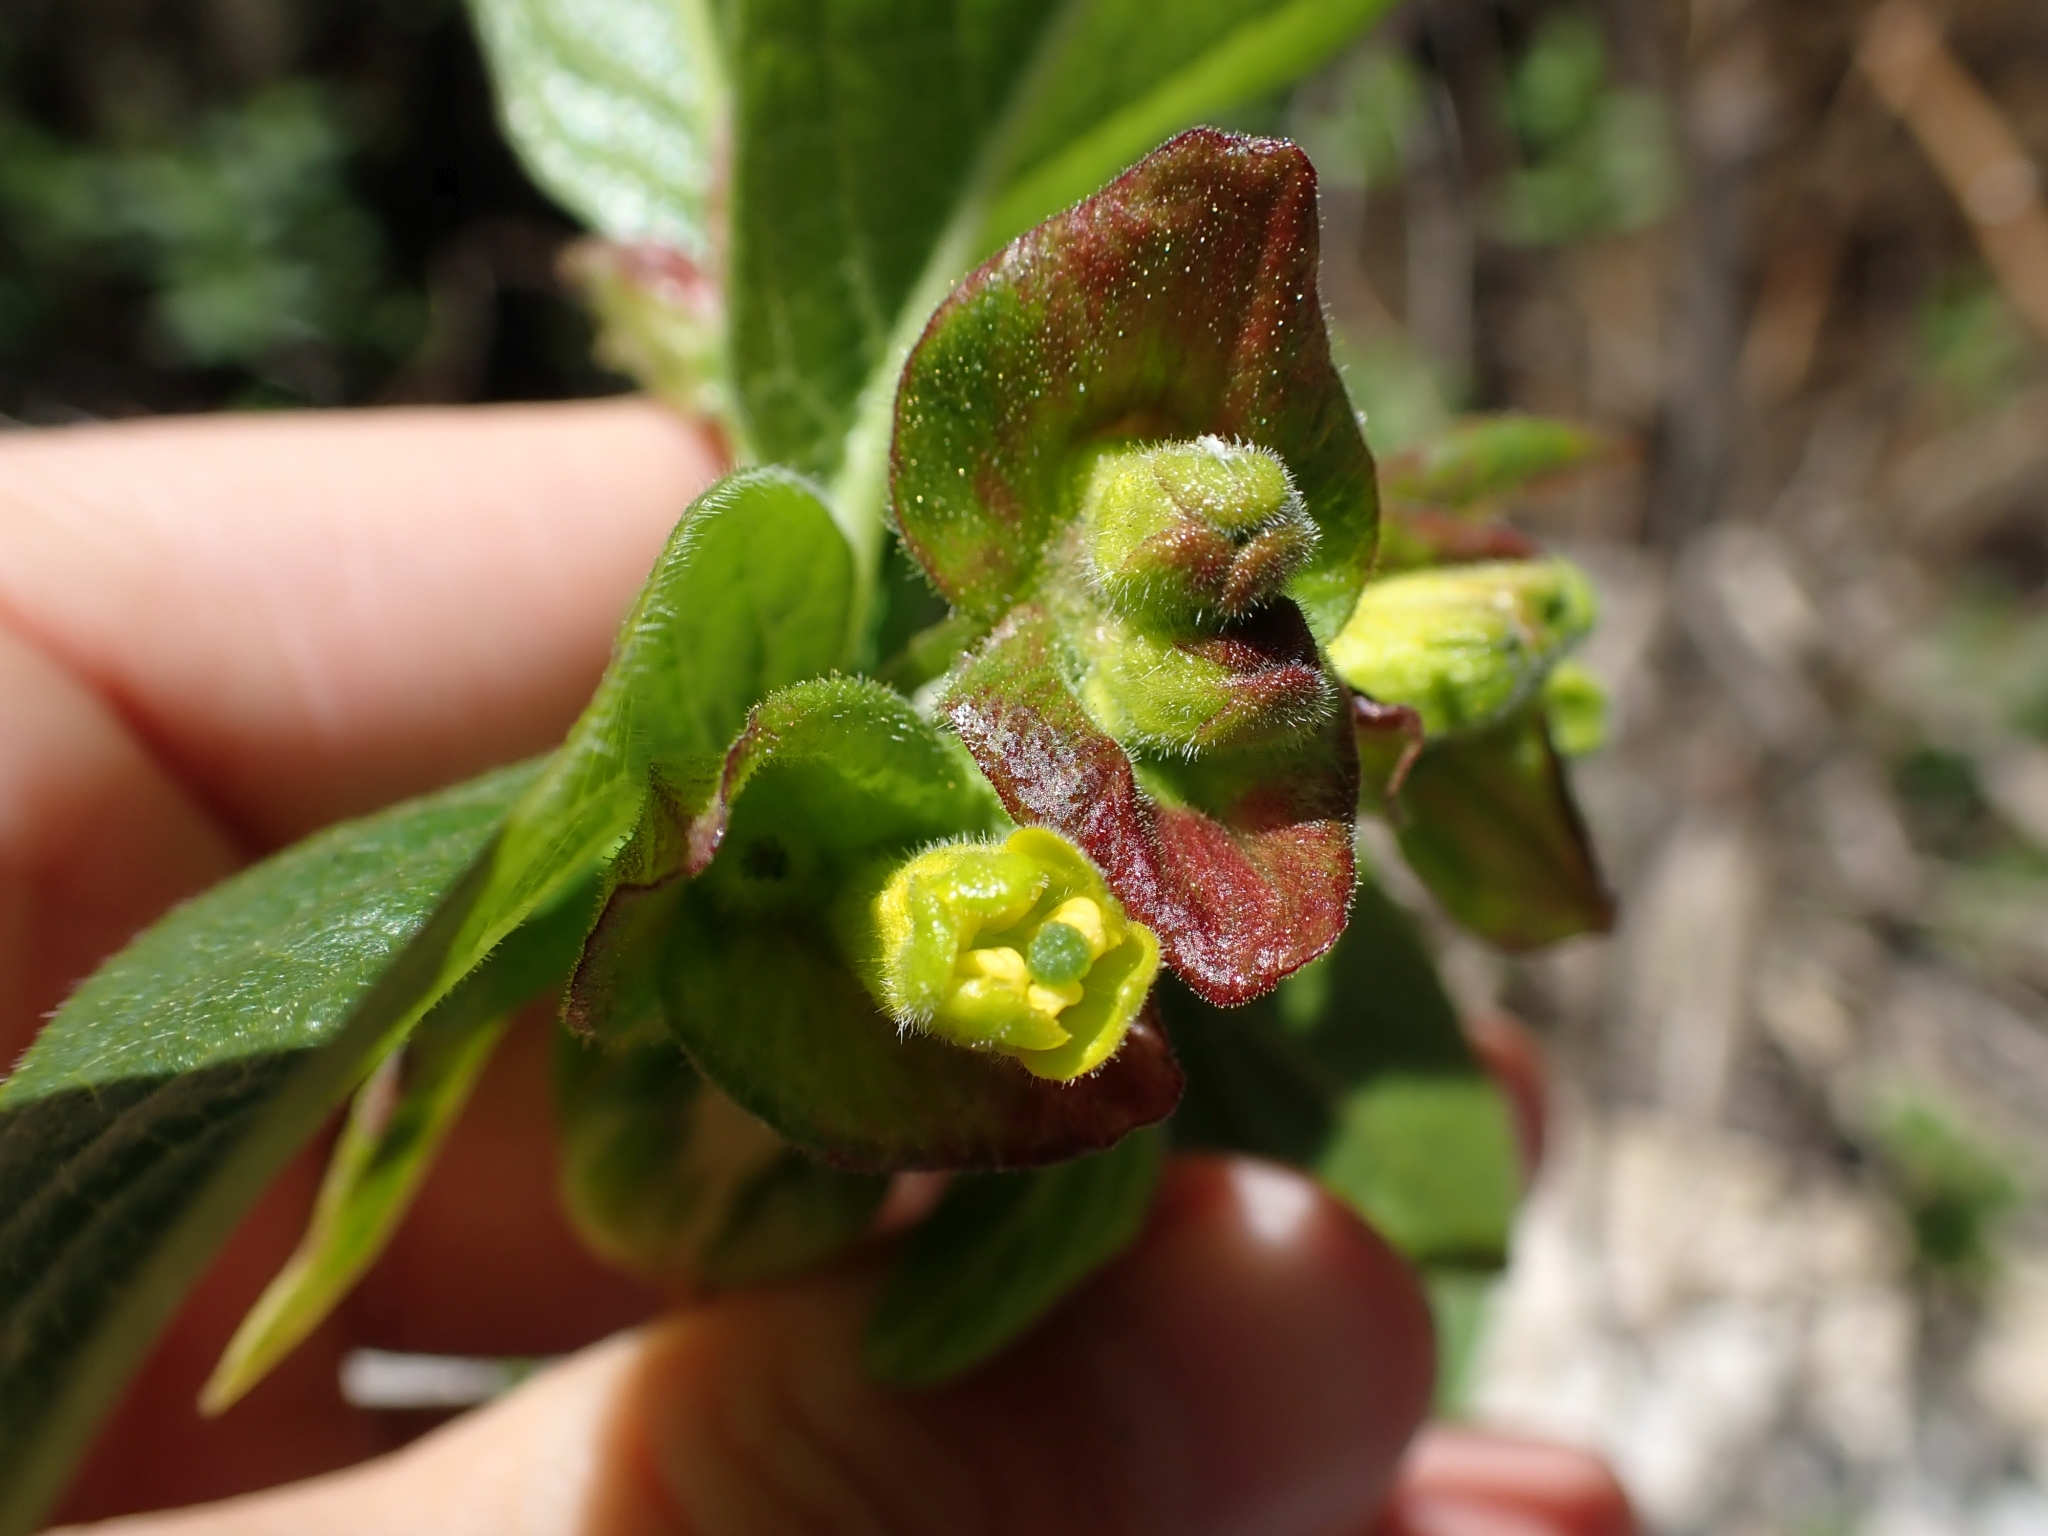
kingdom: Plantae
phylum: Tracheophyta
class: Magnoliopsida
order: Dipsacales
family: Caprifoliaceae
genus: Lonicera
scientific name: Lonicera involucrata
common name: Californian honeysuckle
